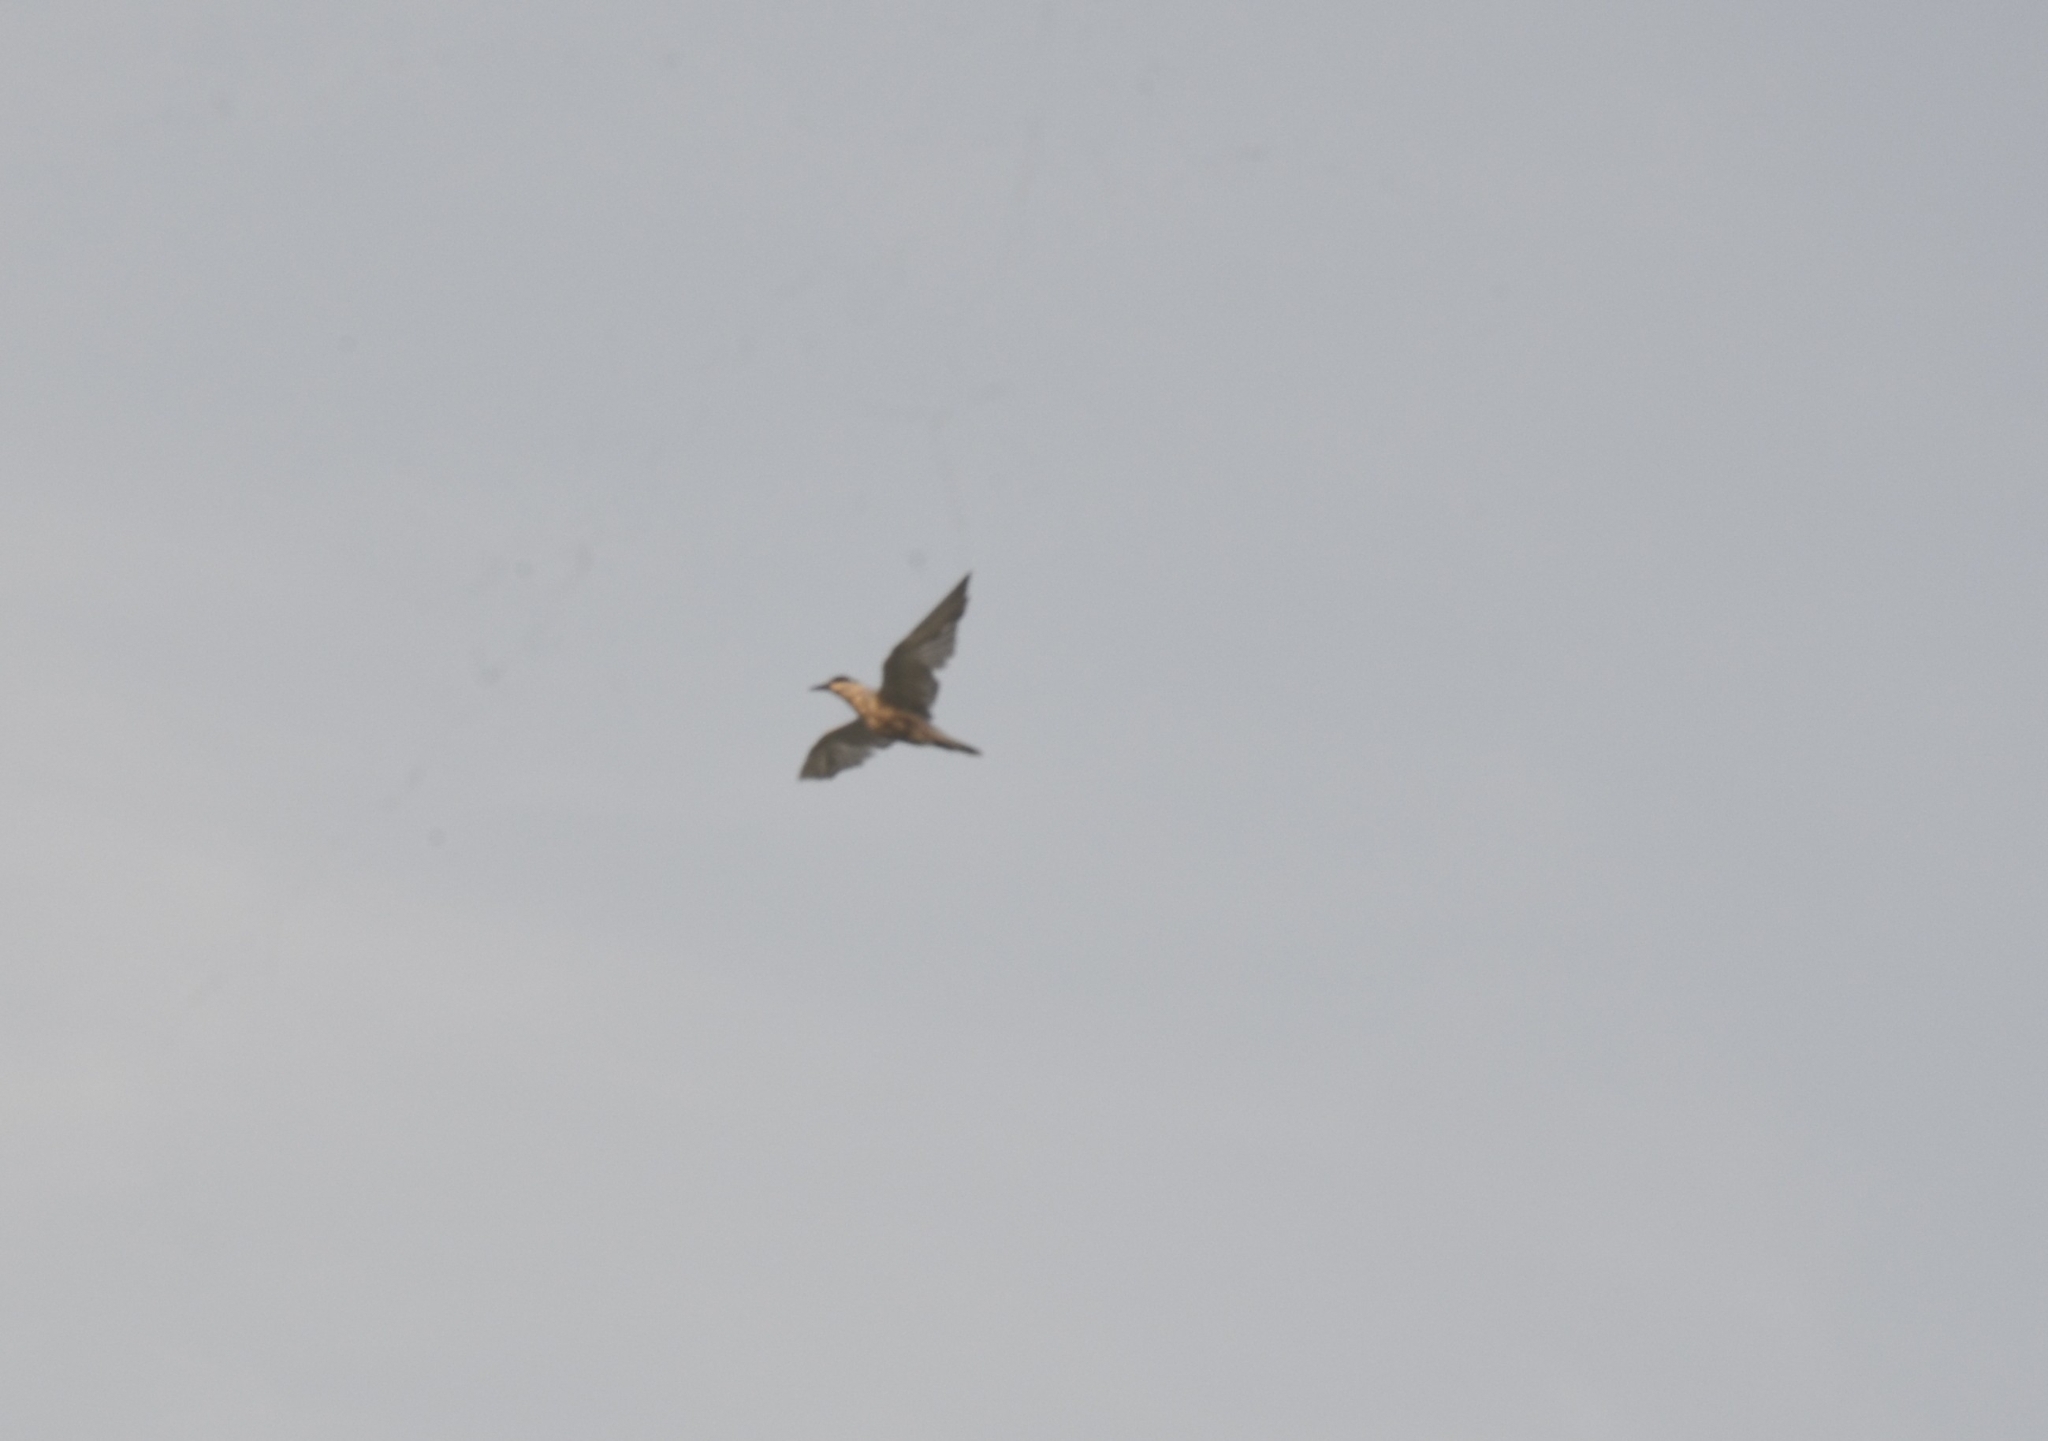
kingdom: Animalia
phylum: Chordata
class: Aves
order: Charadriiformes
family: Laridae
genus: Chlidonias
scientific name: Chlidonias hybrida
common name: Whiskered tern
